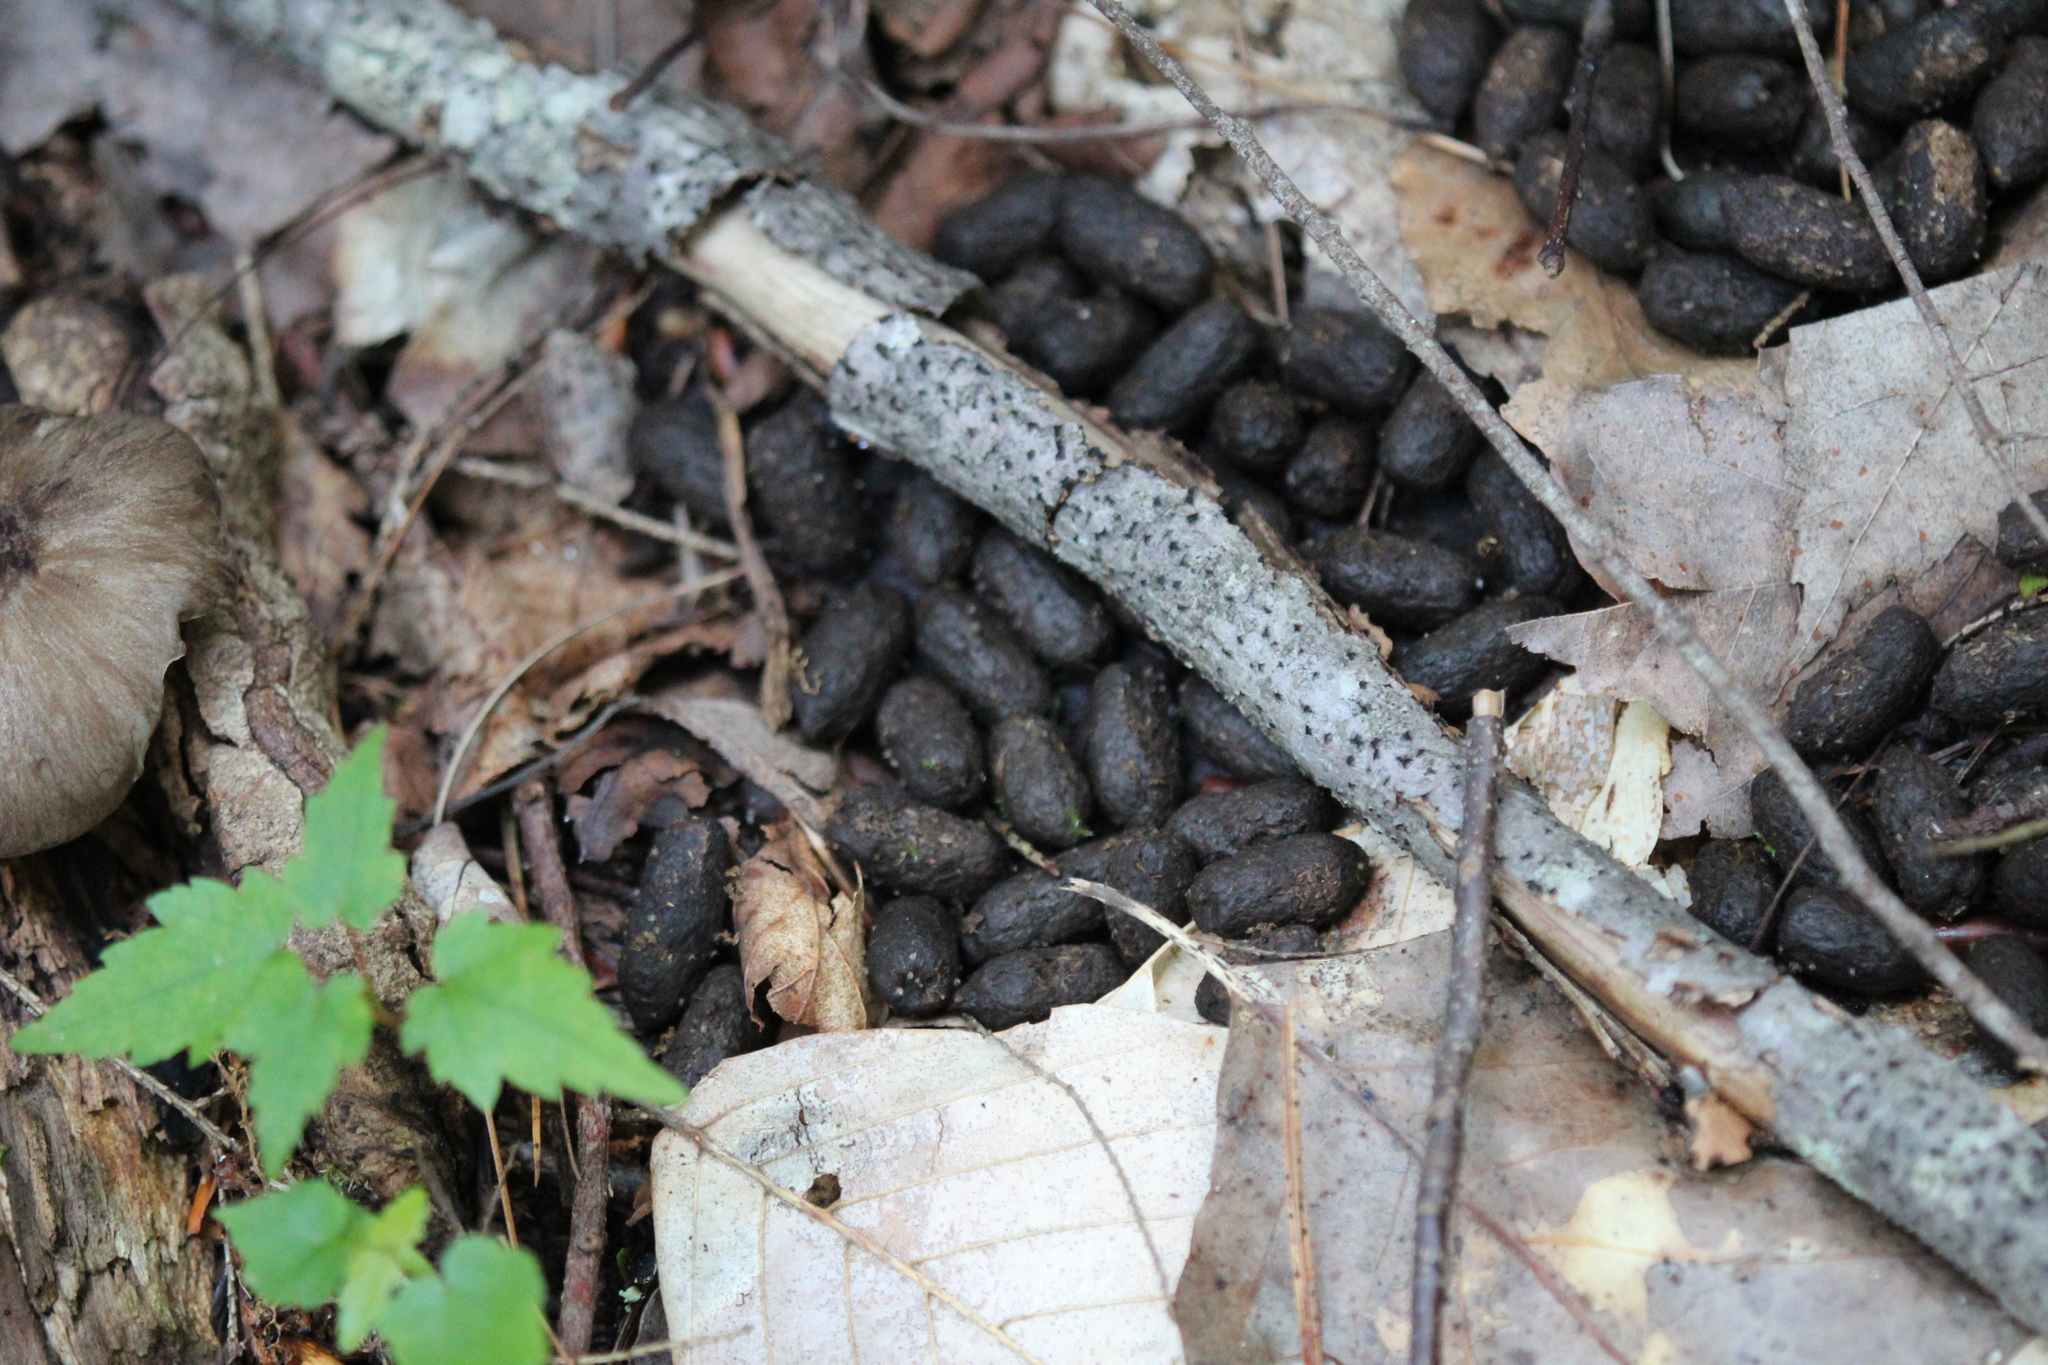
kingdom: Animalia
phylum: Chordata
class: Mammalia
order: Artiodactyla
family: Cervidae
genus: Odocoileus
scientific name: Odocoileus virginianus
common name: White-tailed deer
